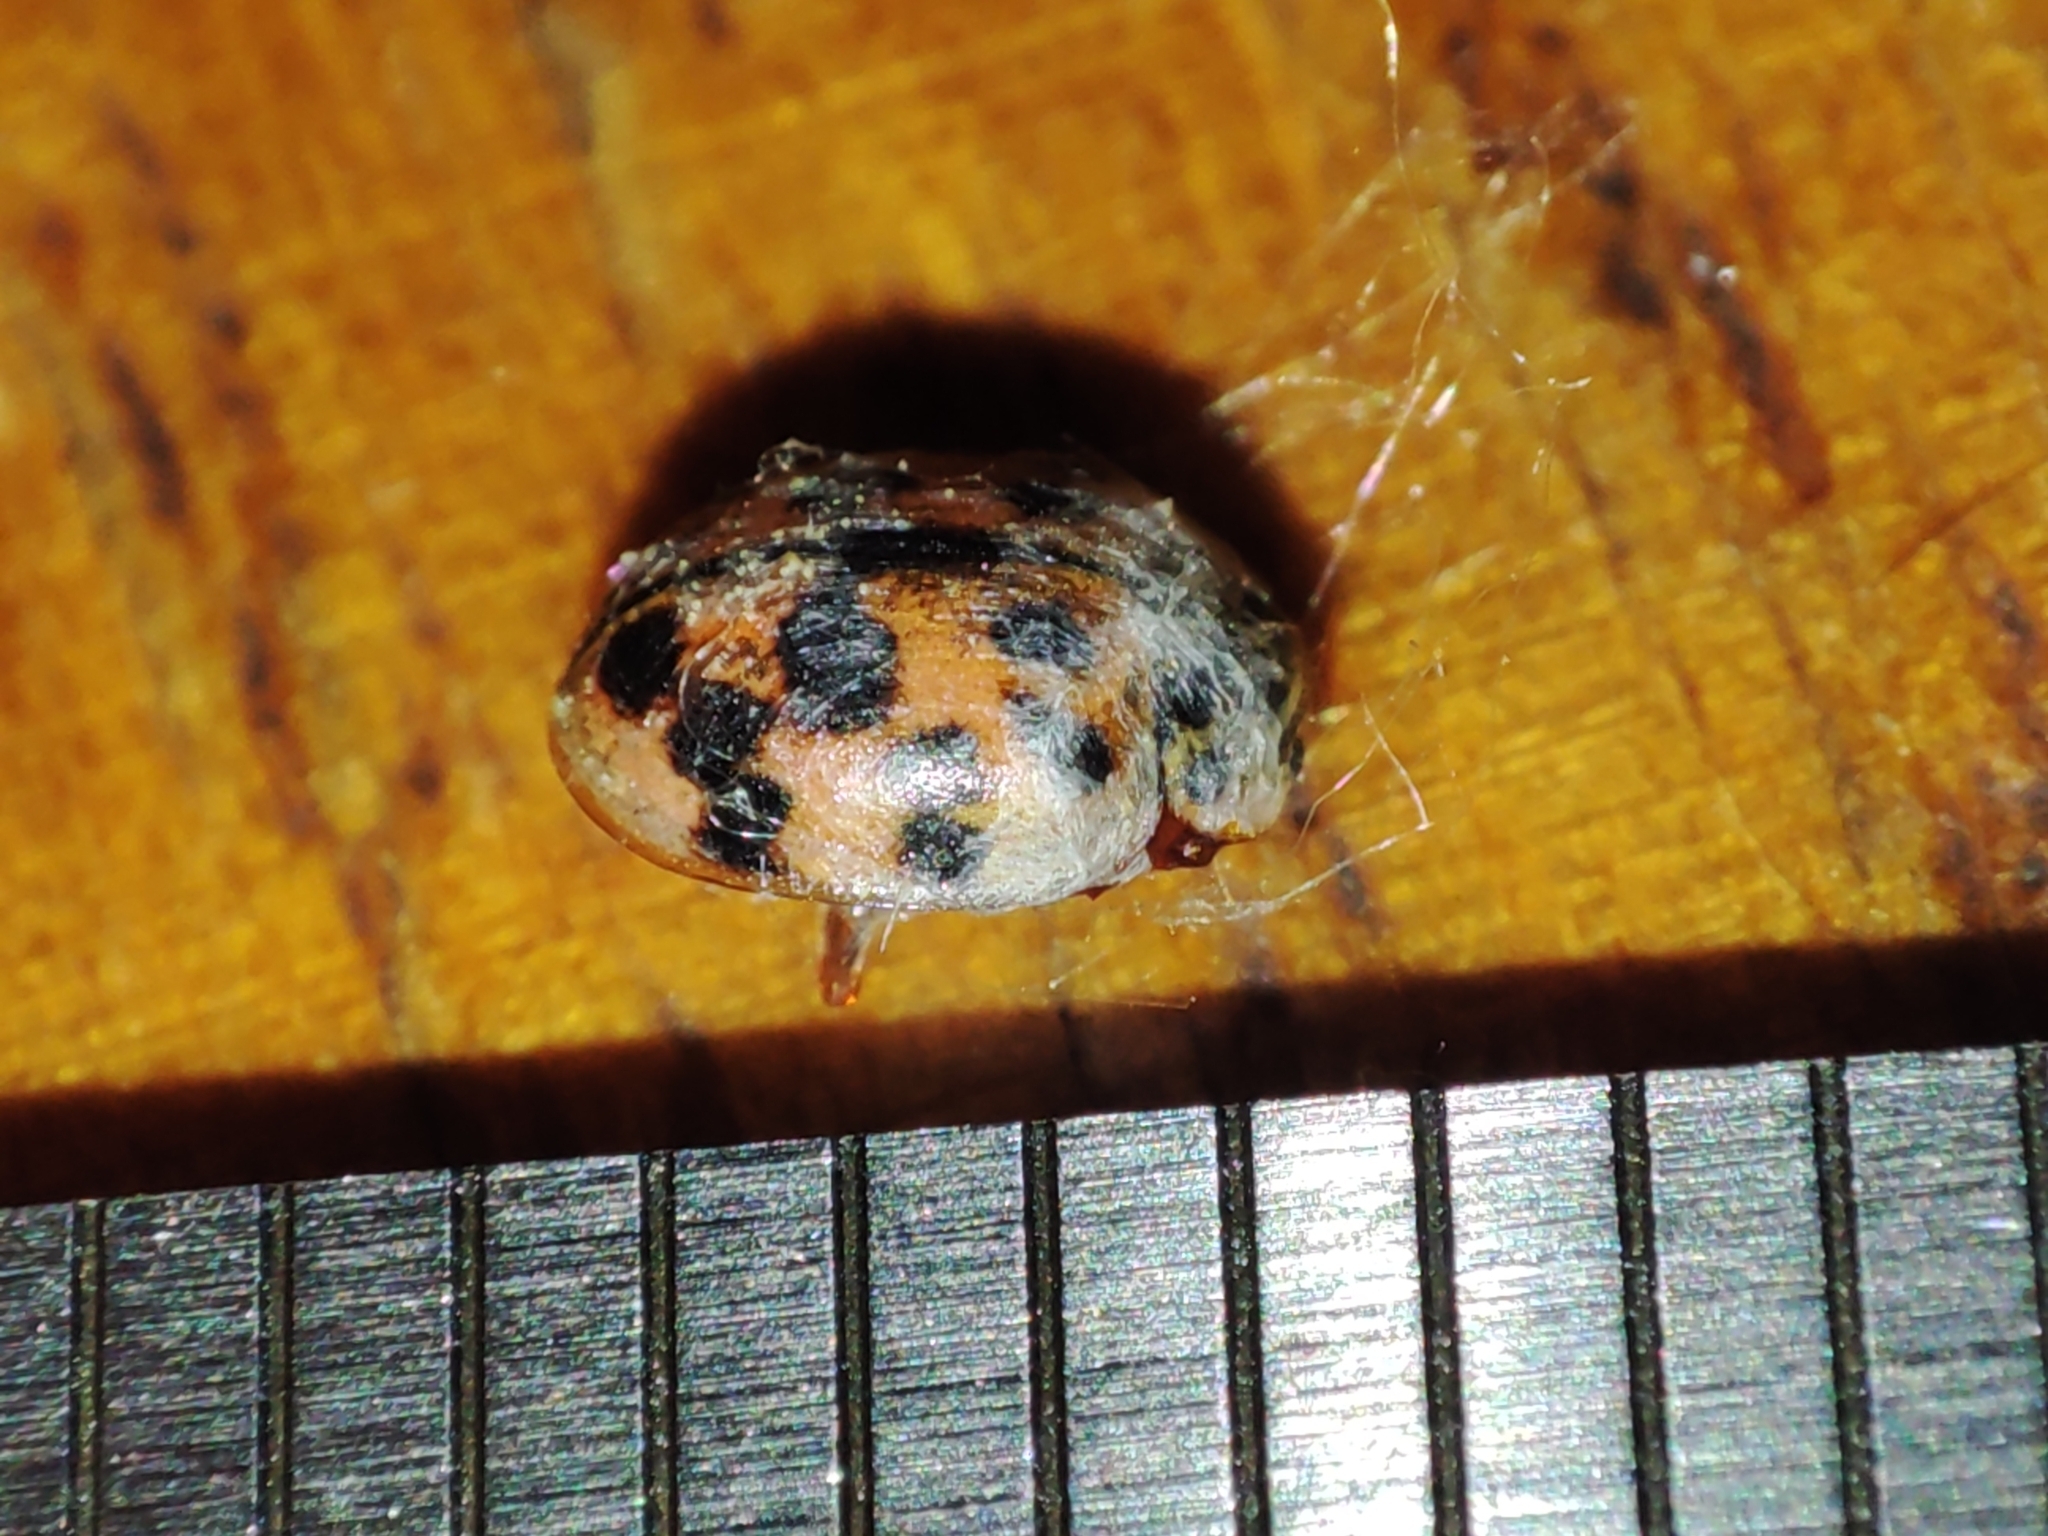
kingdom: Animalia
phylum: Arthropoda
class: Insecta
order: Coleoptera
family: Coccinellidae
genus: Oenopia
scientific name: Oenopia conglobata
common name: Ladybird beetle
